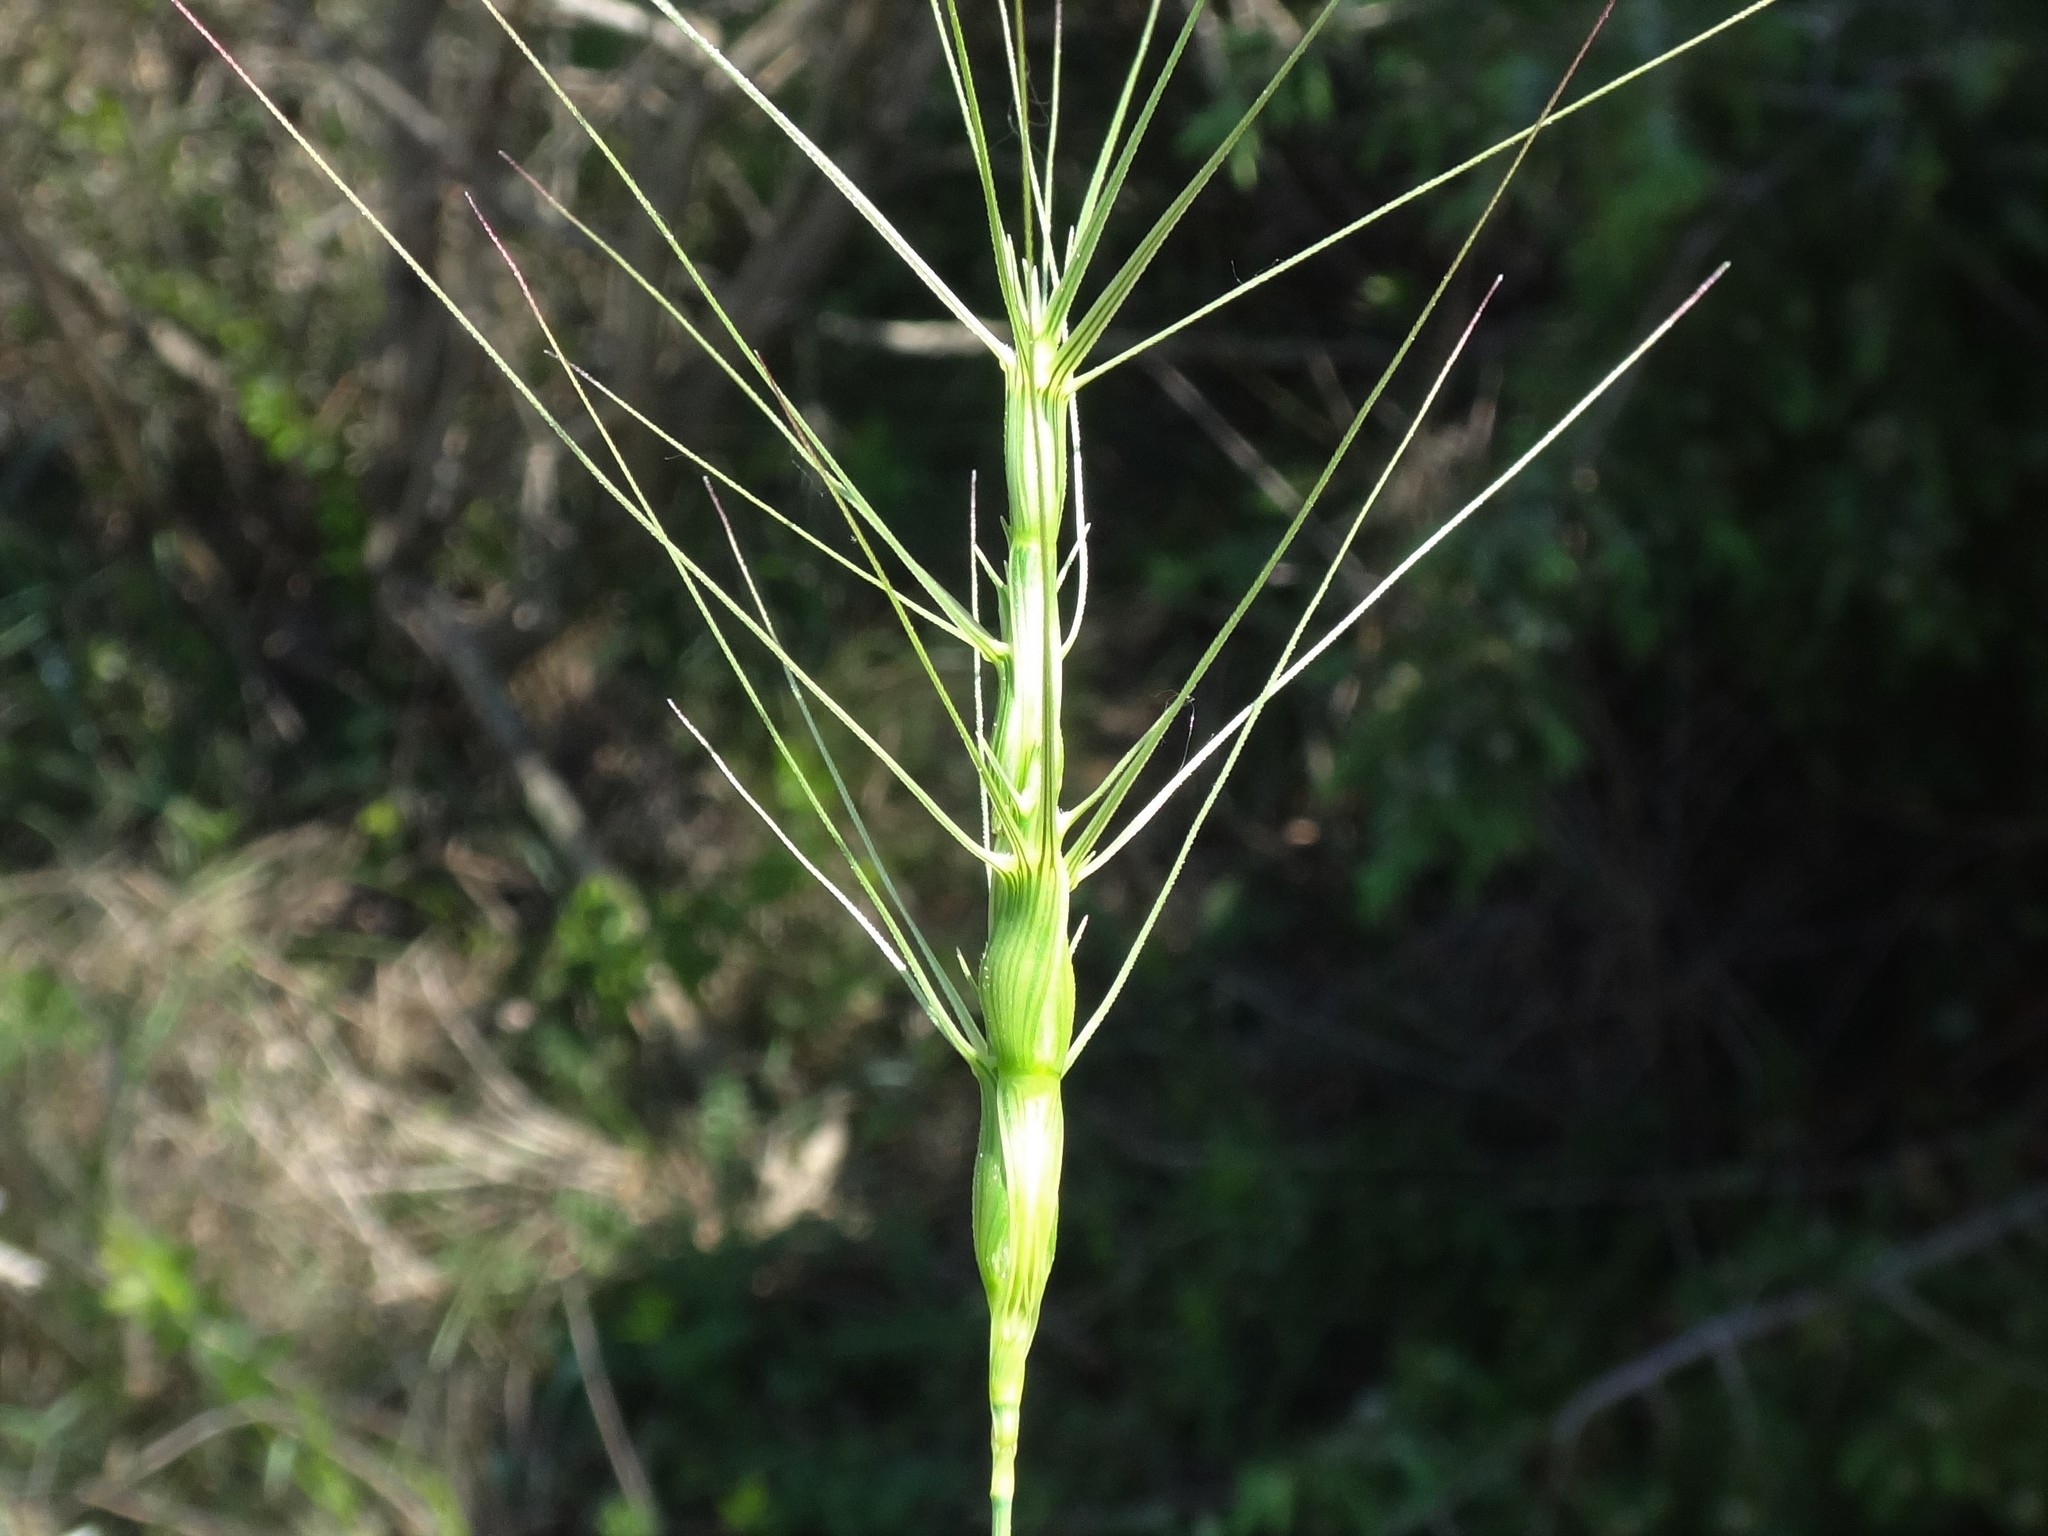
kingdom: Plantae
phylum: Tracheophyta
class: Liliopsida
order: Poales
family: Poaceae
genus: Aegilops
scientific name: Aegilops triuncialis
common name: Barb goat grass
